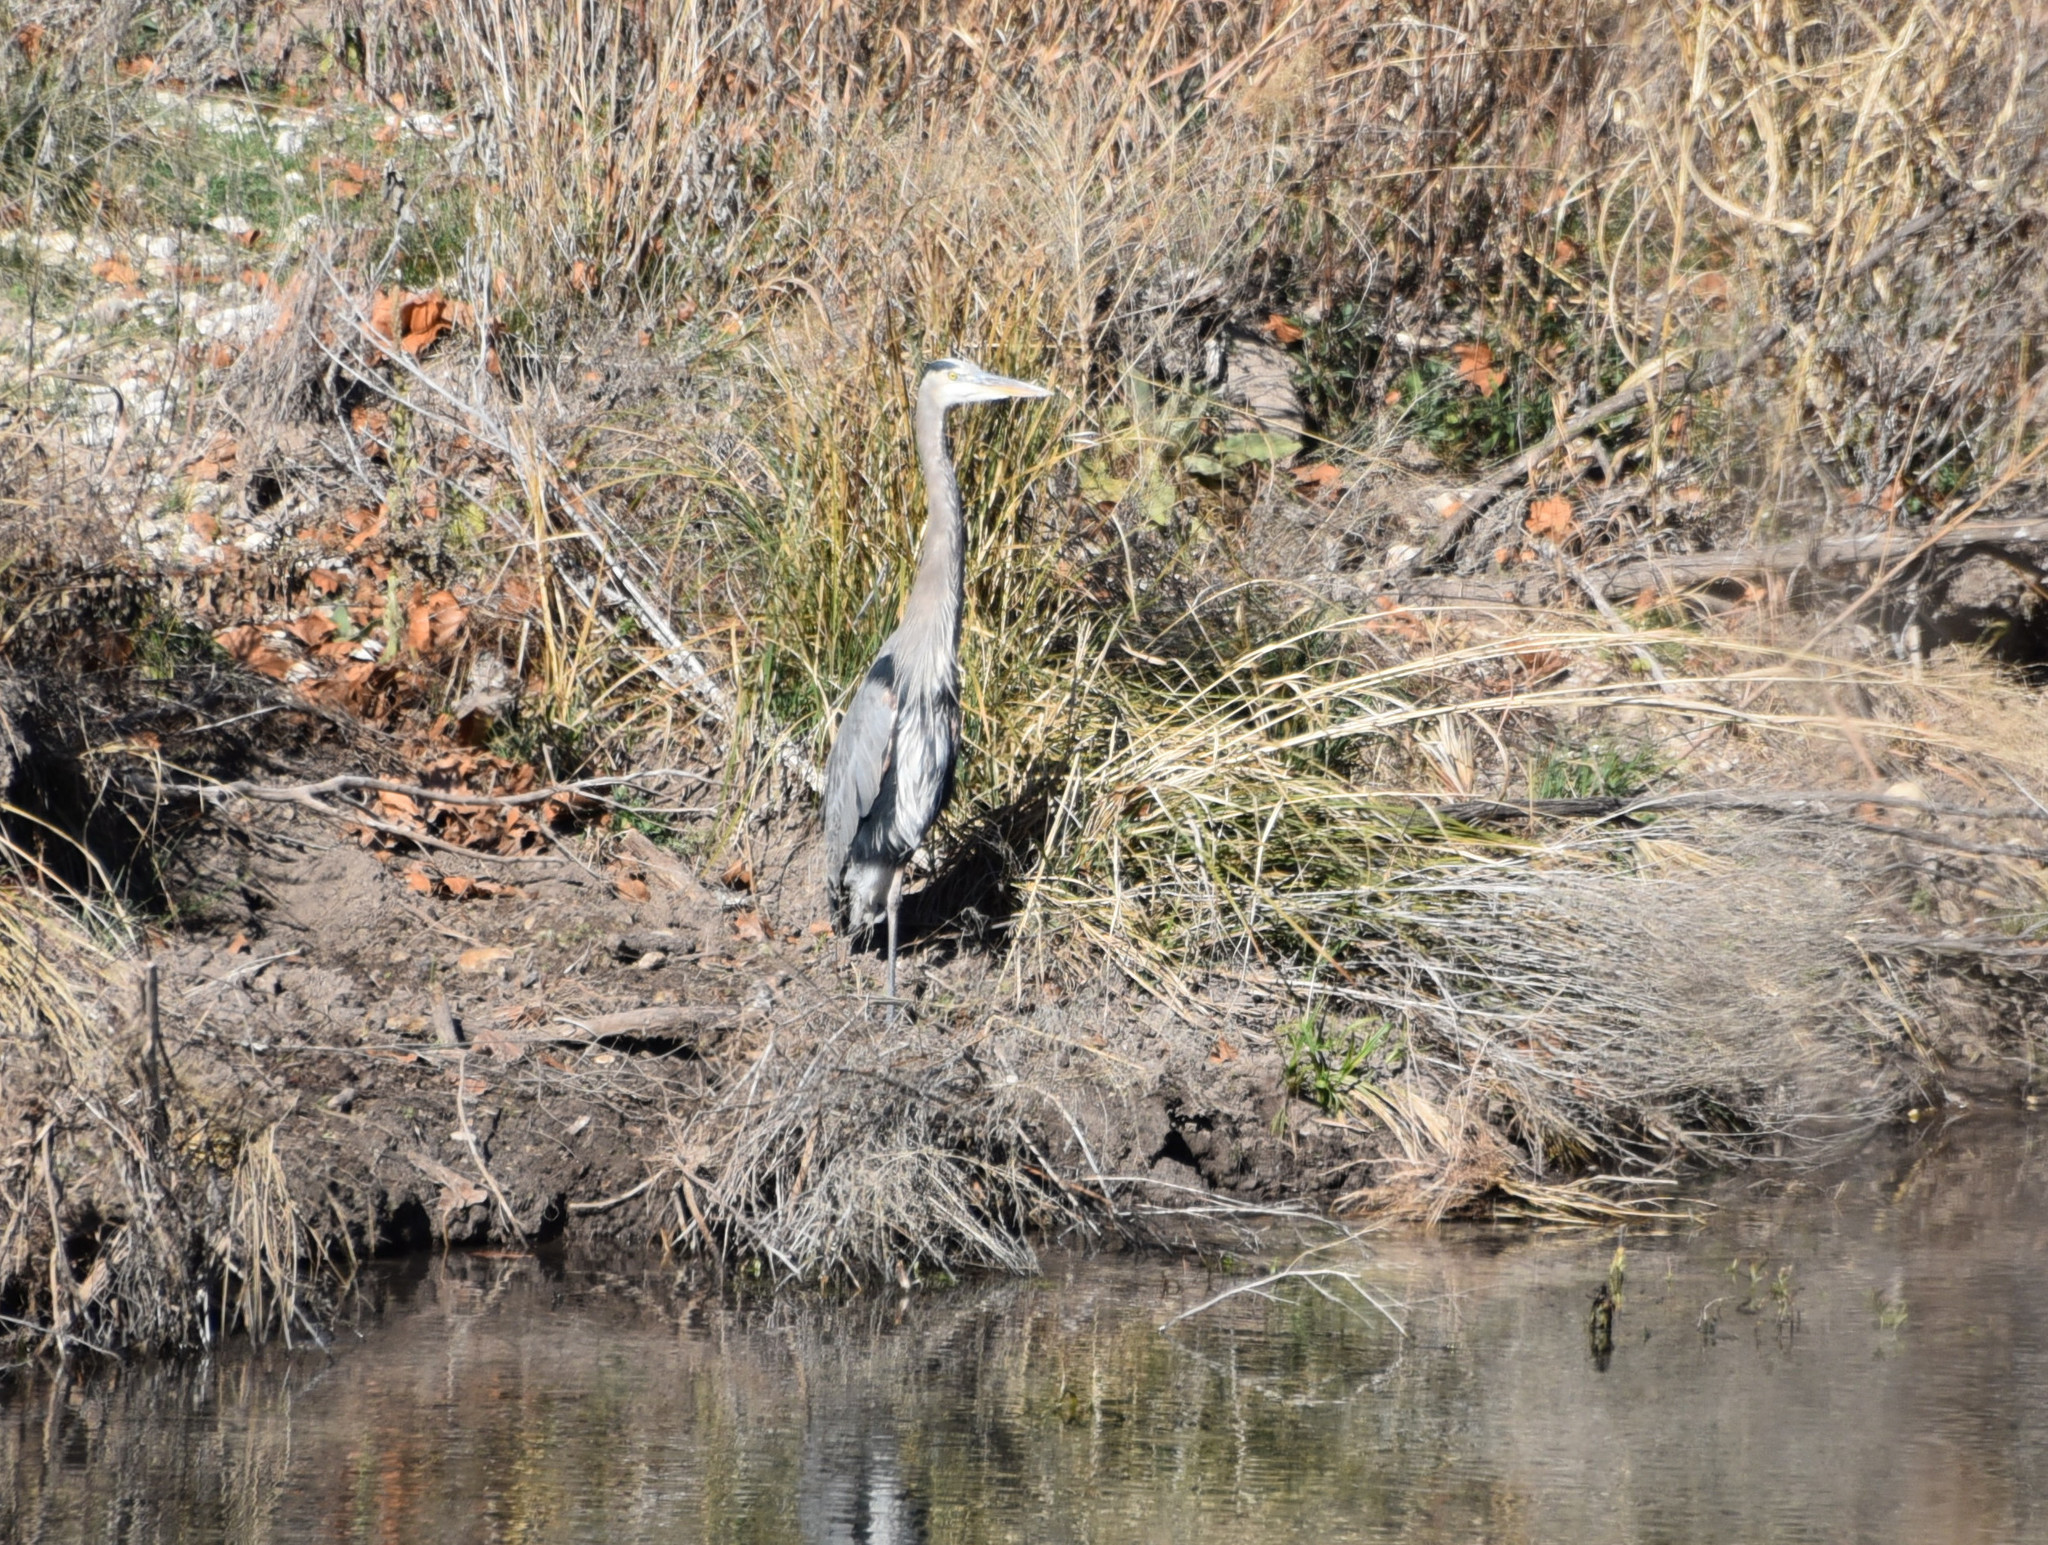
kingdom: Animalia
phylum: Chordata
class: Aves
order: Pelecaniformes
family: Ardeidae
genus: Ardea
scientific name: Ardea herodias
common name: Great blue heron
